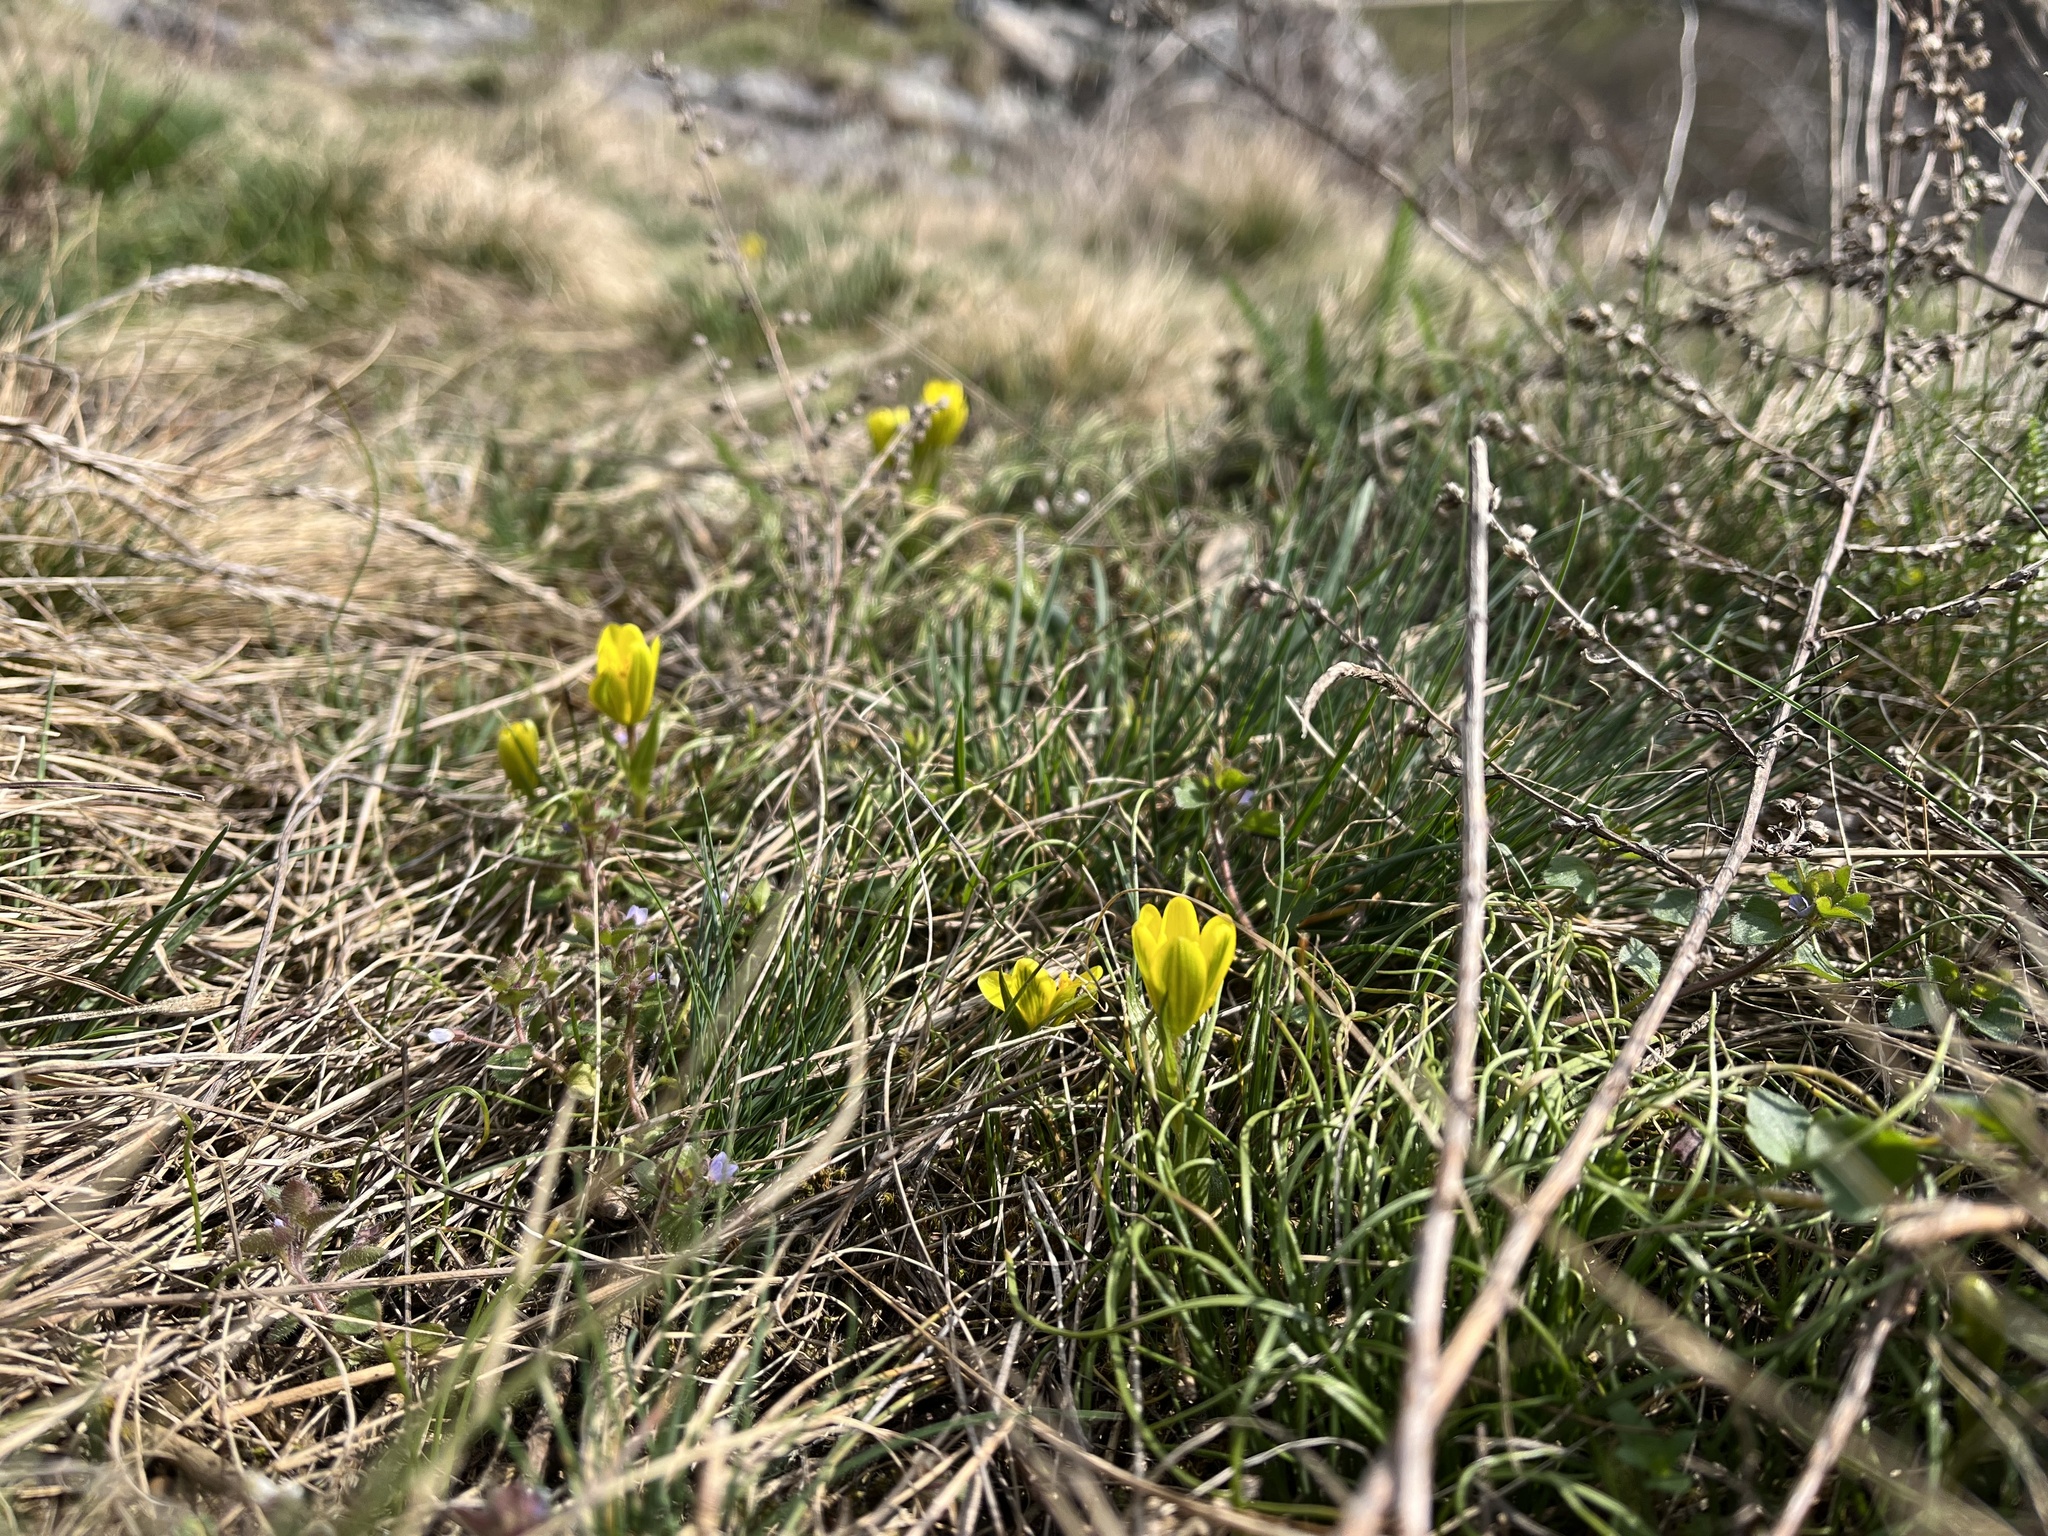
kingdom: Plantae
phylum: Tracheophyta
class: Liliopsida
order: Liliales
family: Liliaceae
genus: Gagea
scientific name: Gagea bohemica
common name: Early star-of-bethlehem
